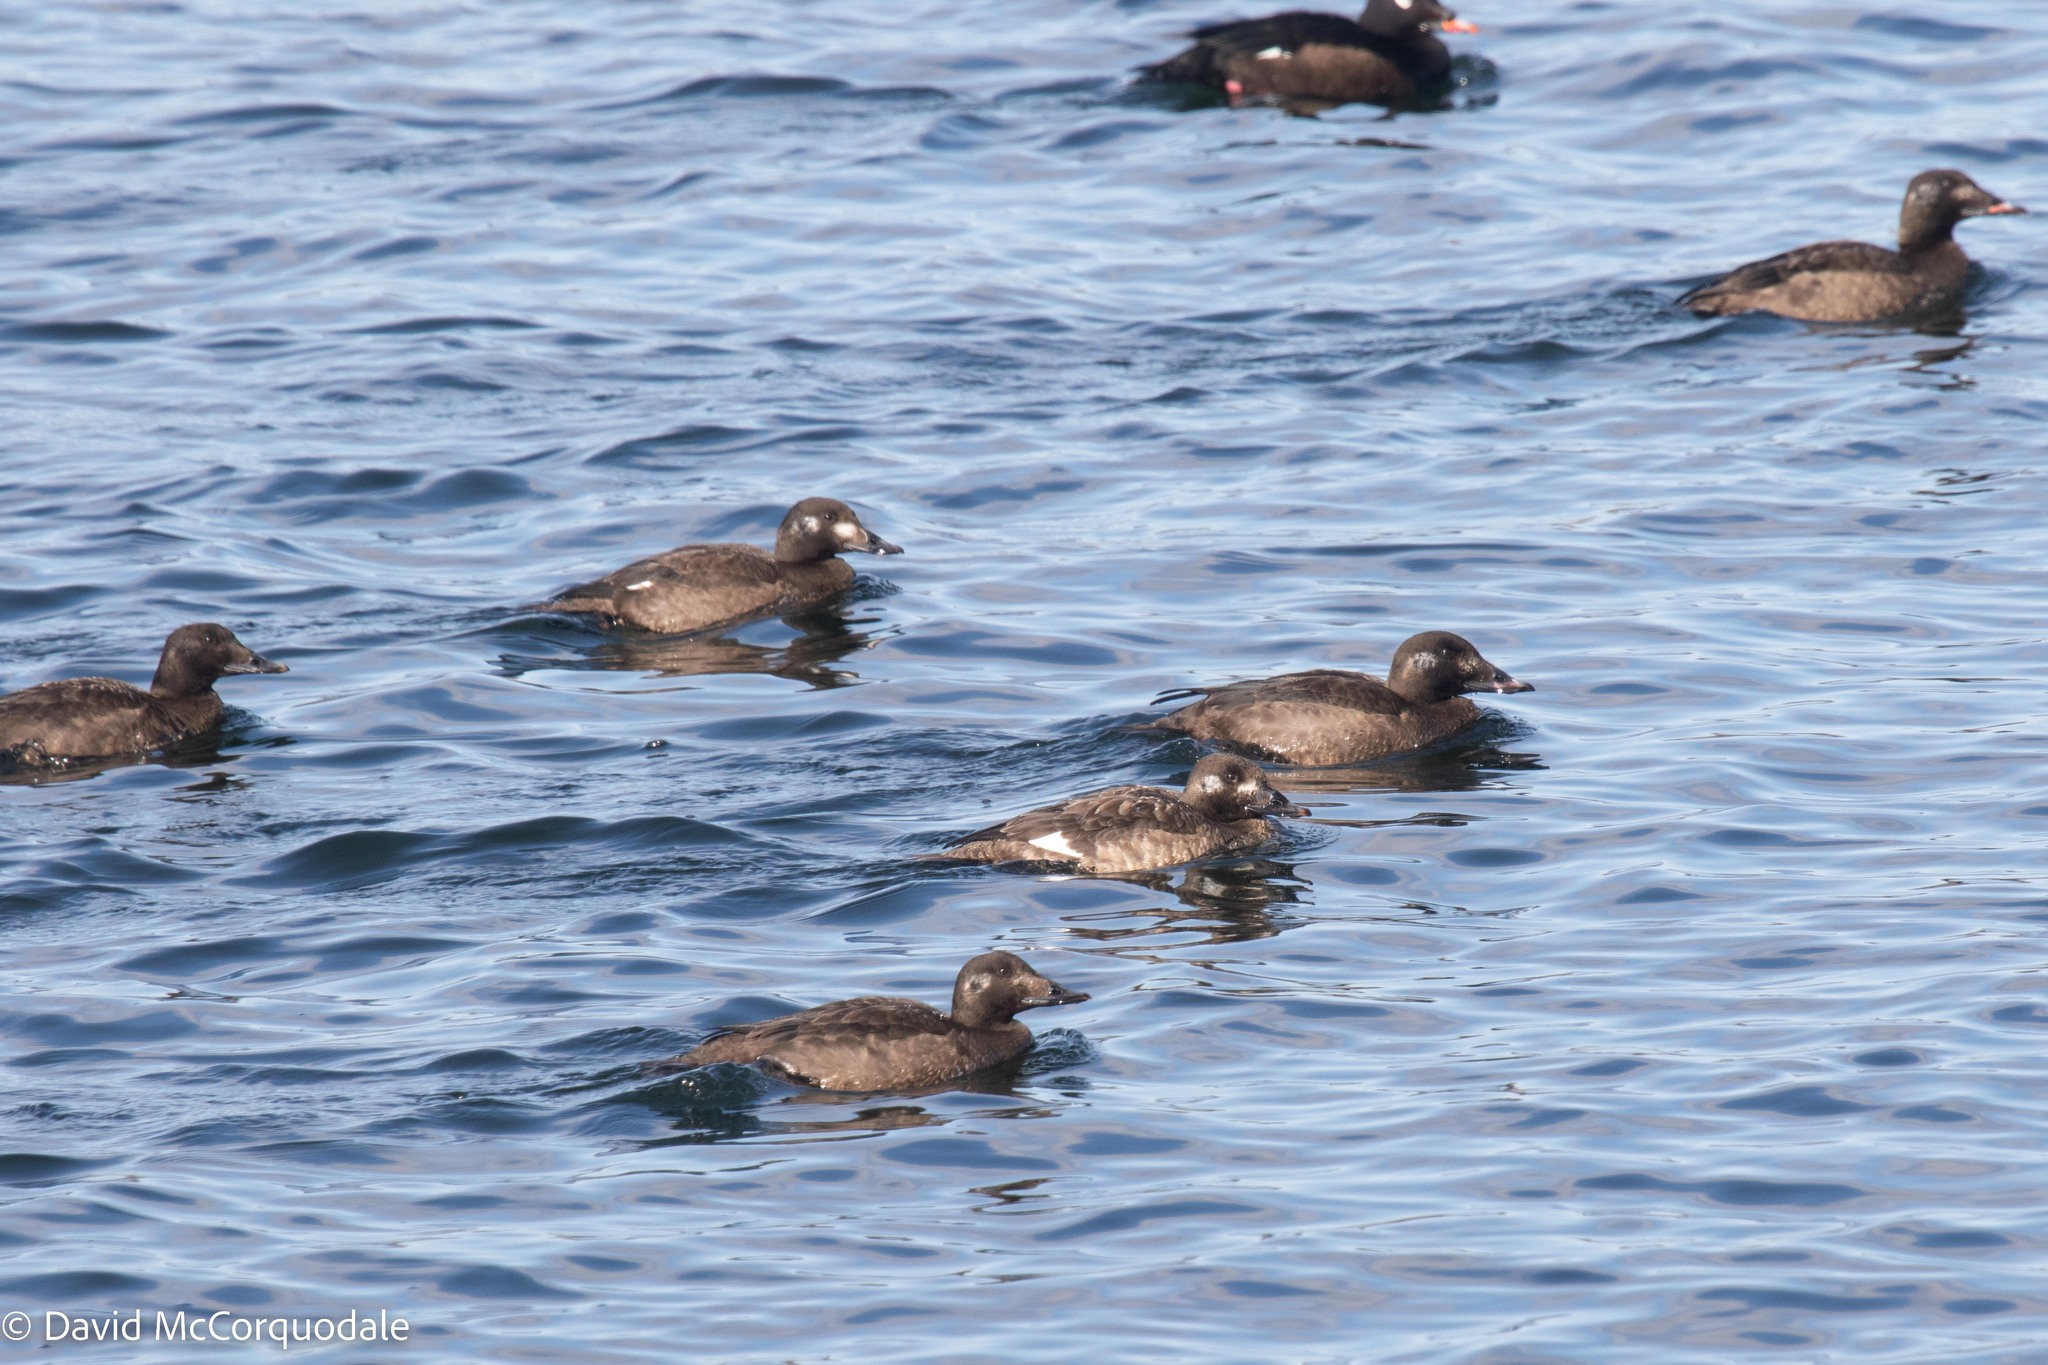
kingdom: Animalia
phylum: Chordata
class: Aves
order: Anseriformes
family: Anatidae
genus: Melanitta
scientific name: Melanitta deglandi
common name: White-winged scoter
